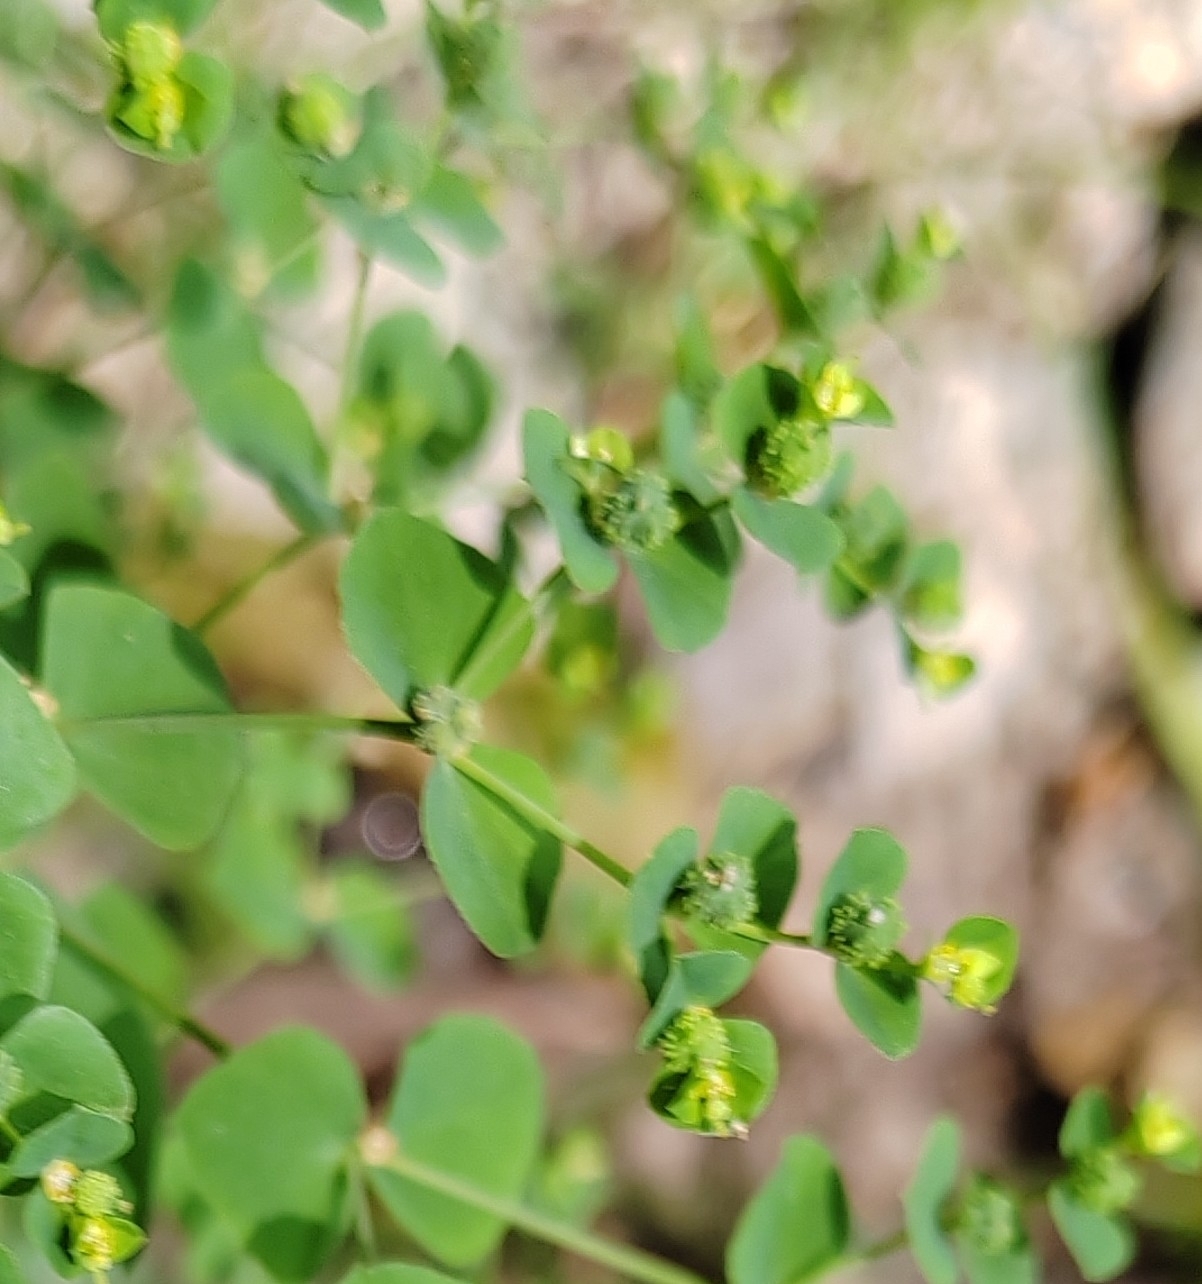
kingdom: Plantae
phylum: Tracheophyta
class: Magnoliopsida
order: Malpighiales
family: Euphorbiaceae
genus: Euphorbia
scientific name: Euphorbia stricta
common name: Upright spurge
